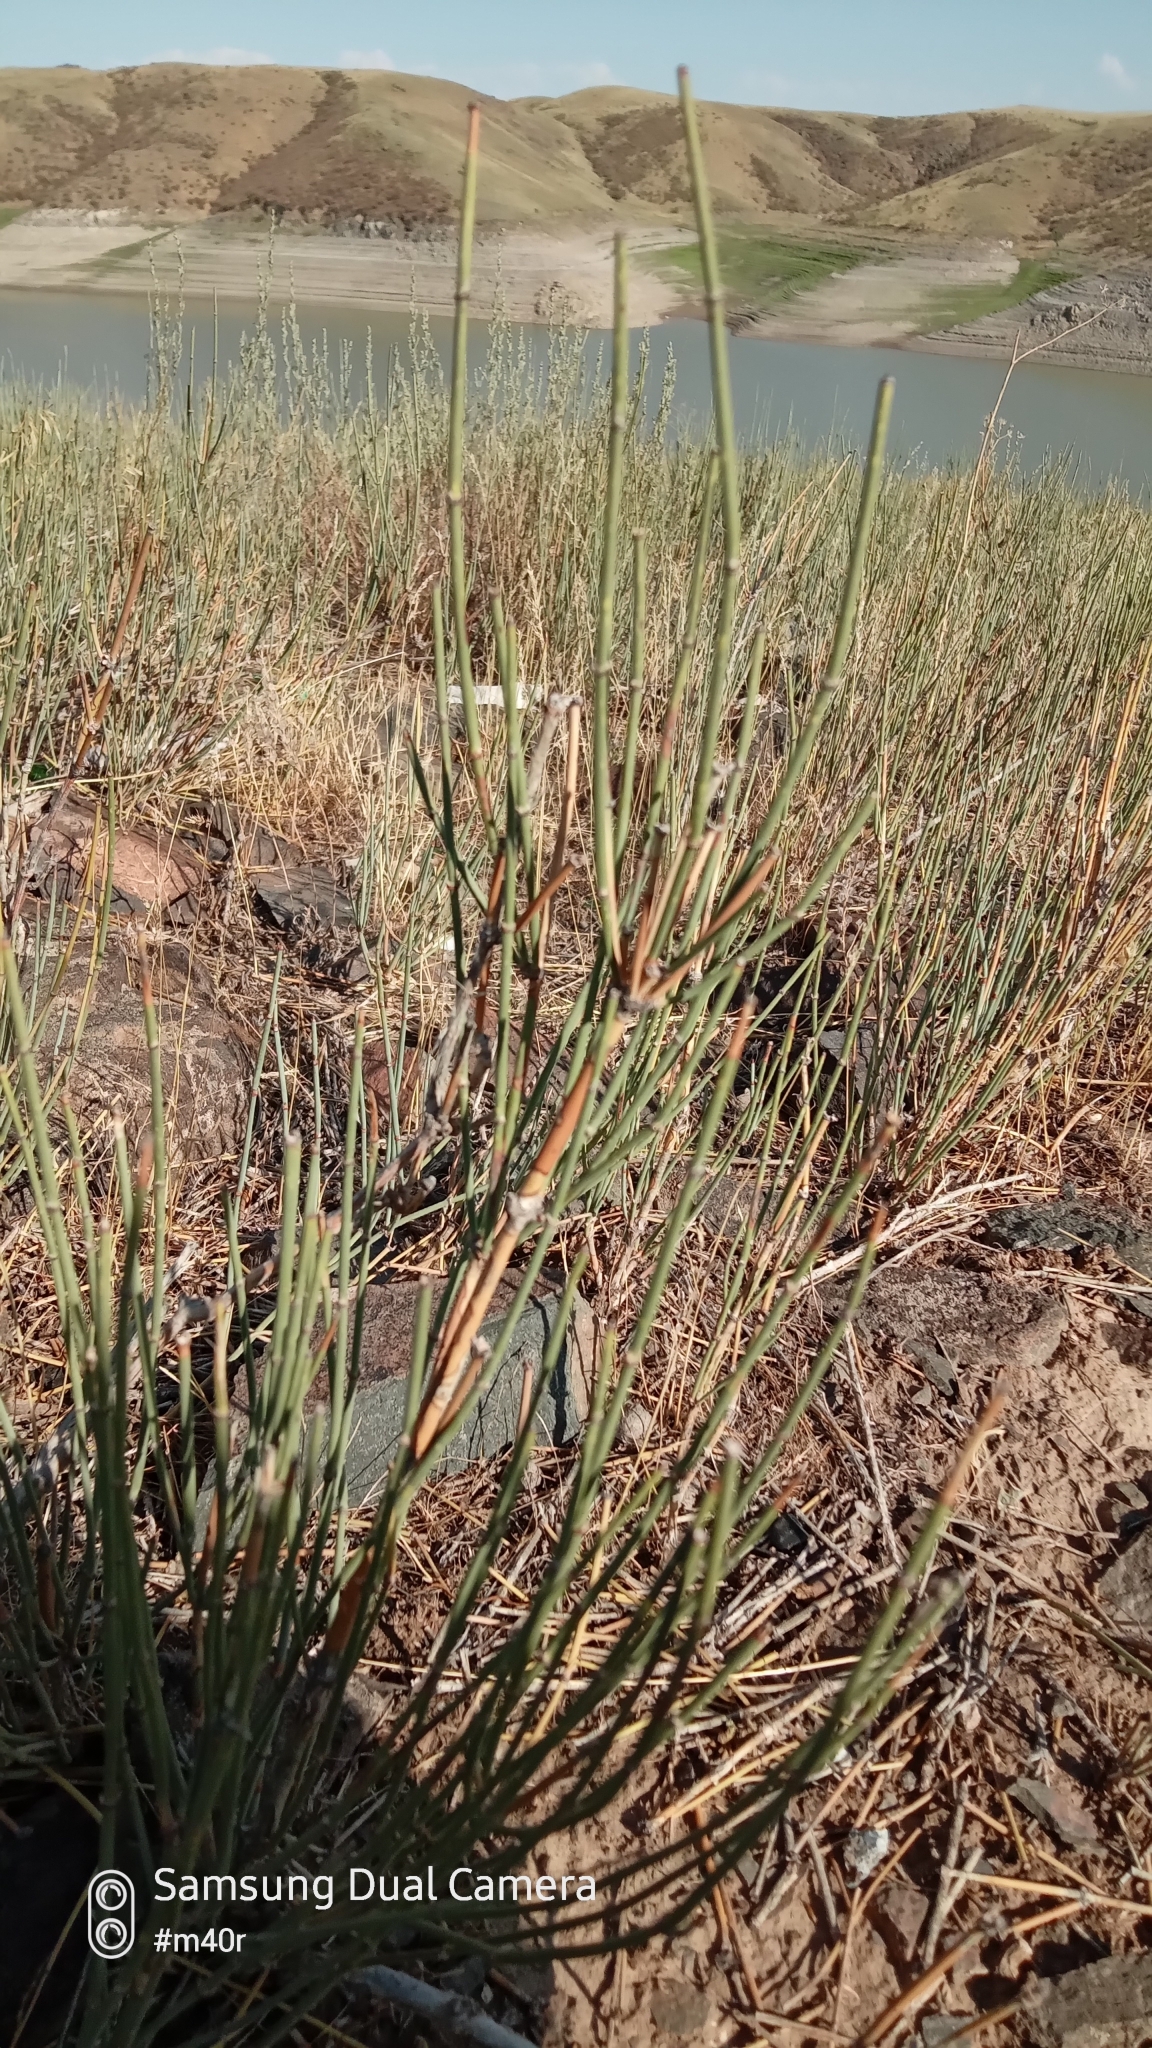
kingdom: Plantae
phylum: Tracheophyta
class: Gnetopsida
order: Ephedrales
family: Ephedraceae
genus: Ephedra
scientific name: Ephedra intermedia
